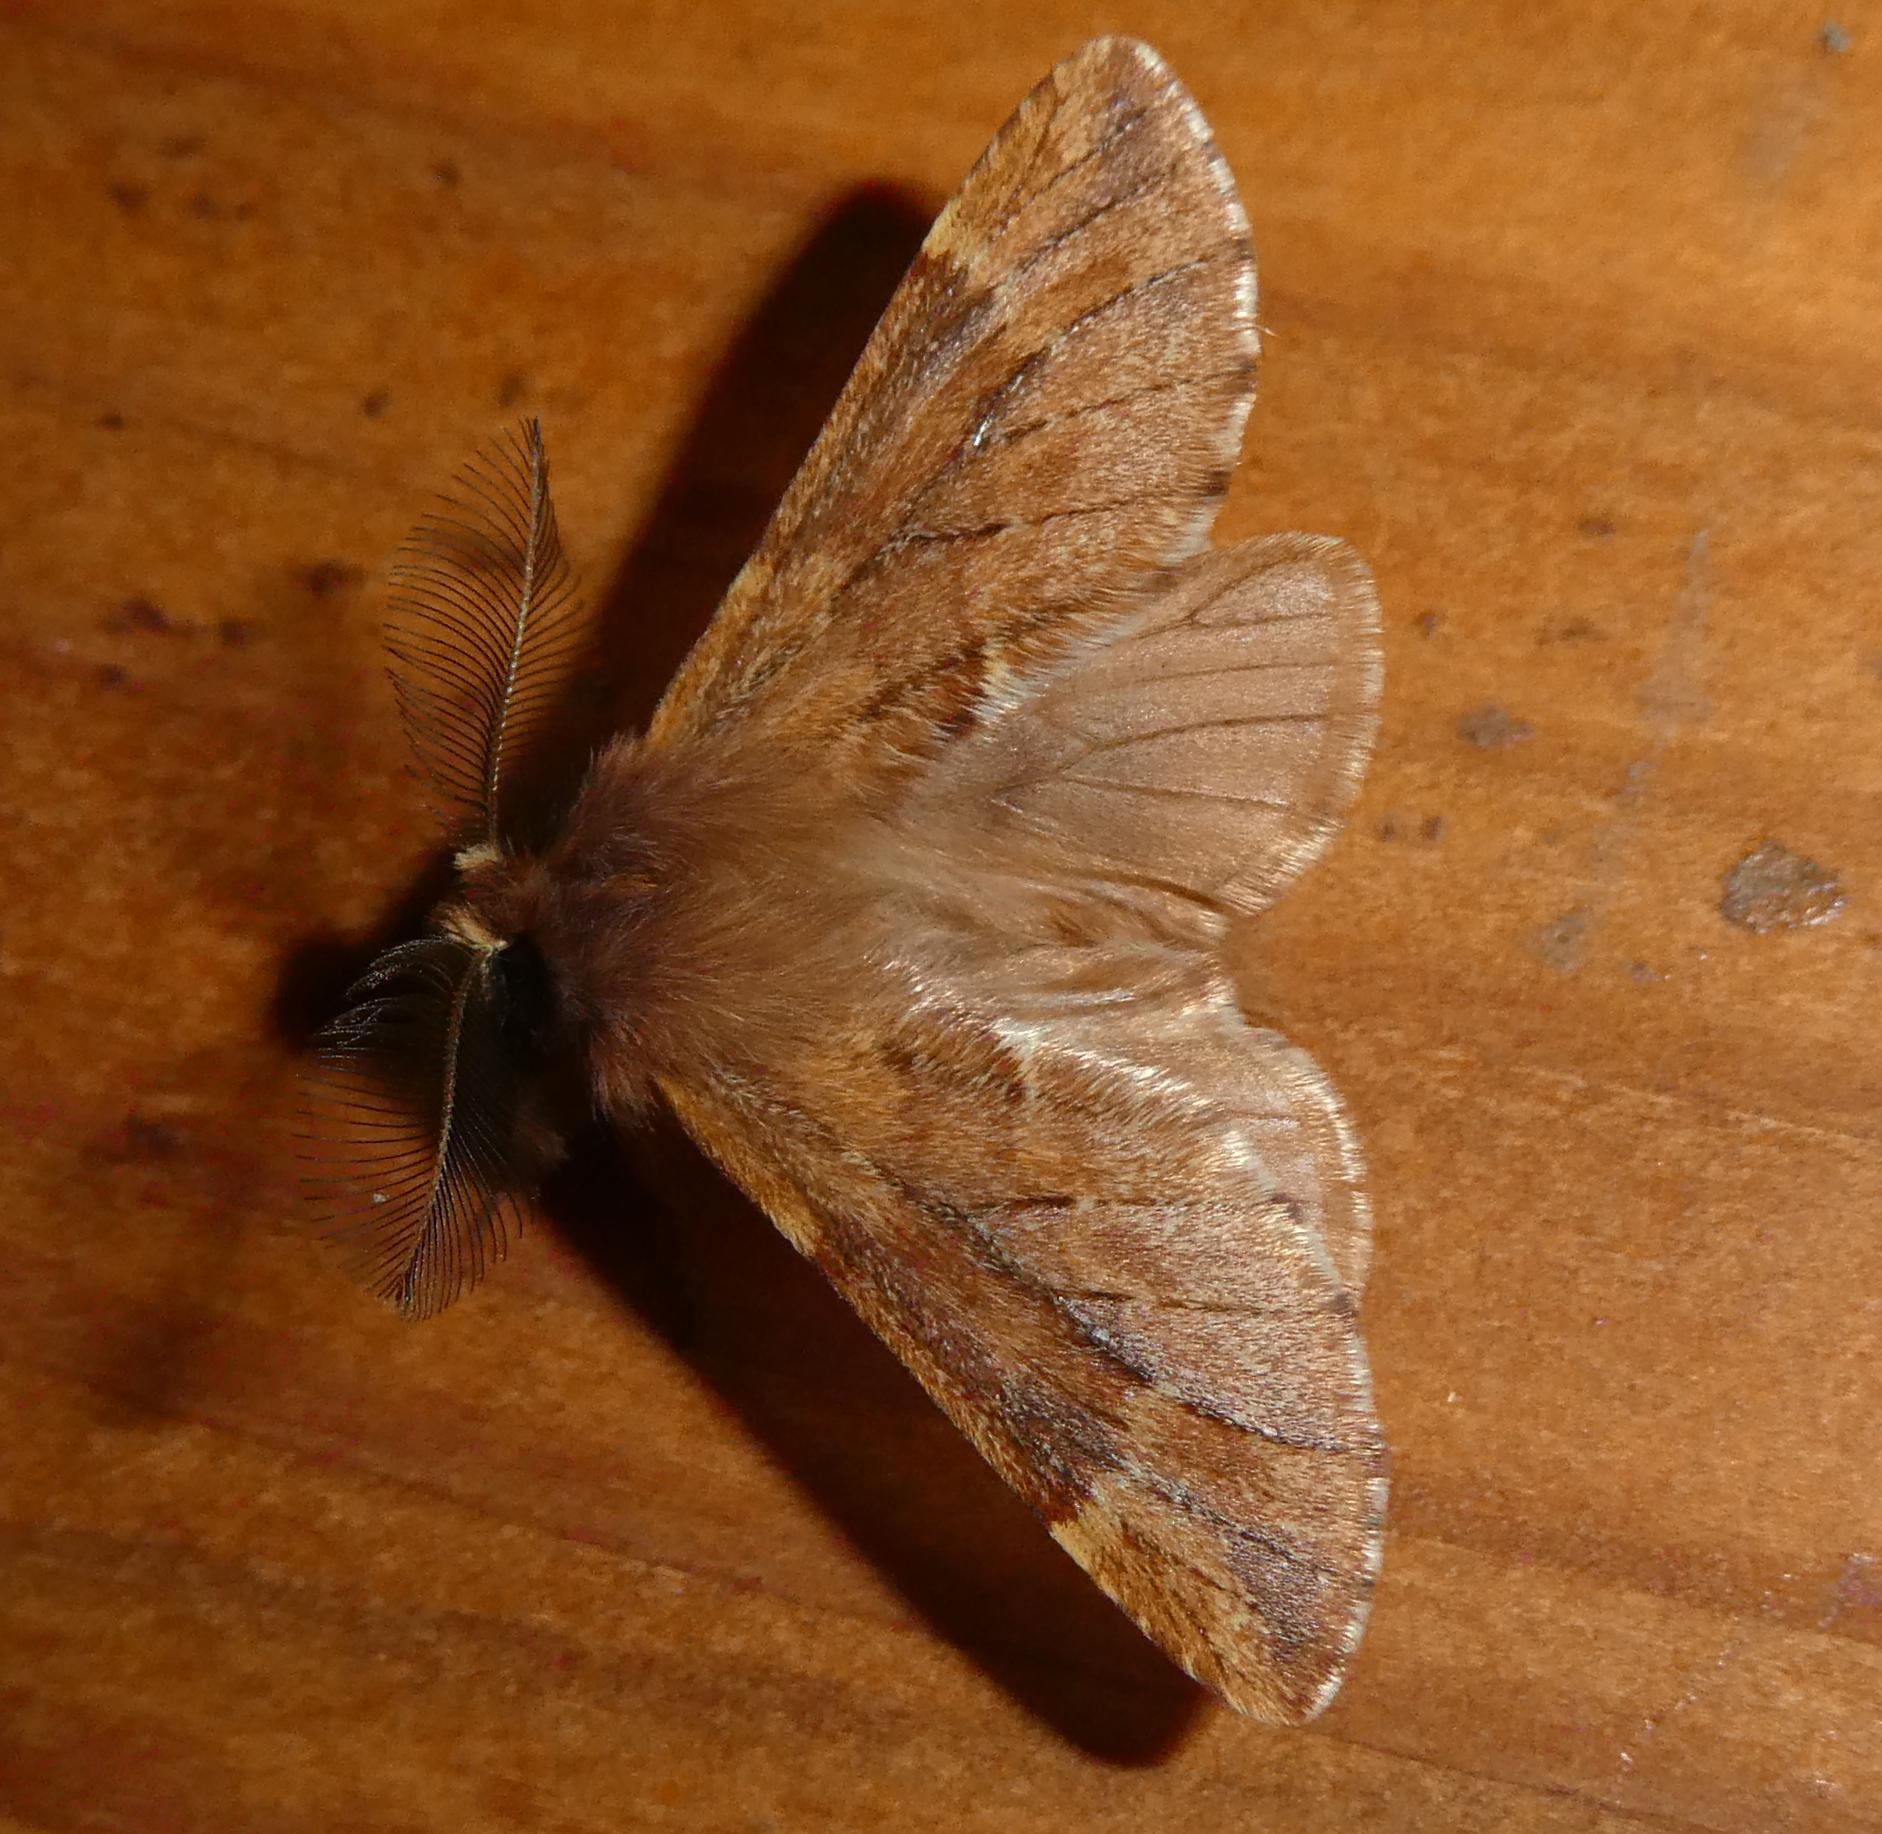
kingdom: Animalia
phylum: Arthropoda
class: Insecta
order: Lepidoptera
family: Notodontidae
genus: Ptilophora
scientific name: Ptilophora plumigera
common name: Plumed prominent
